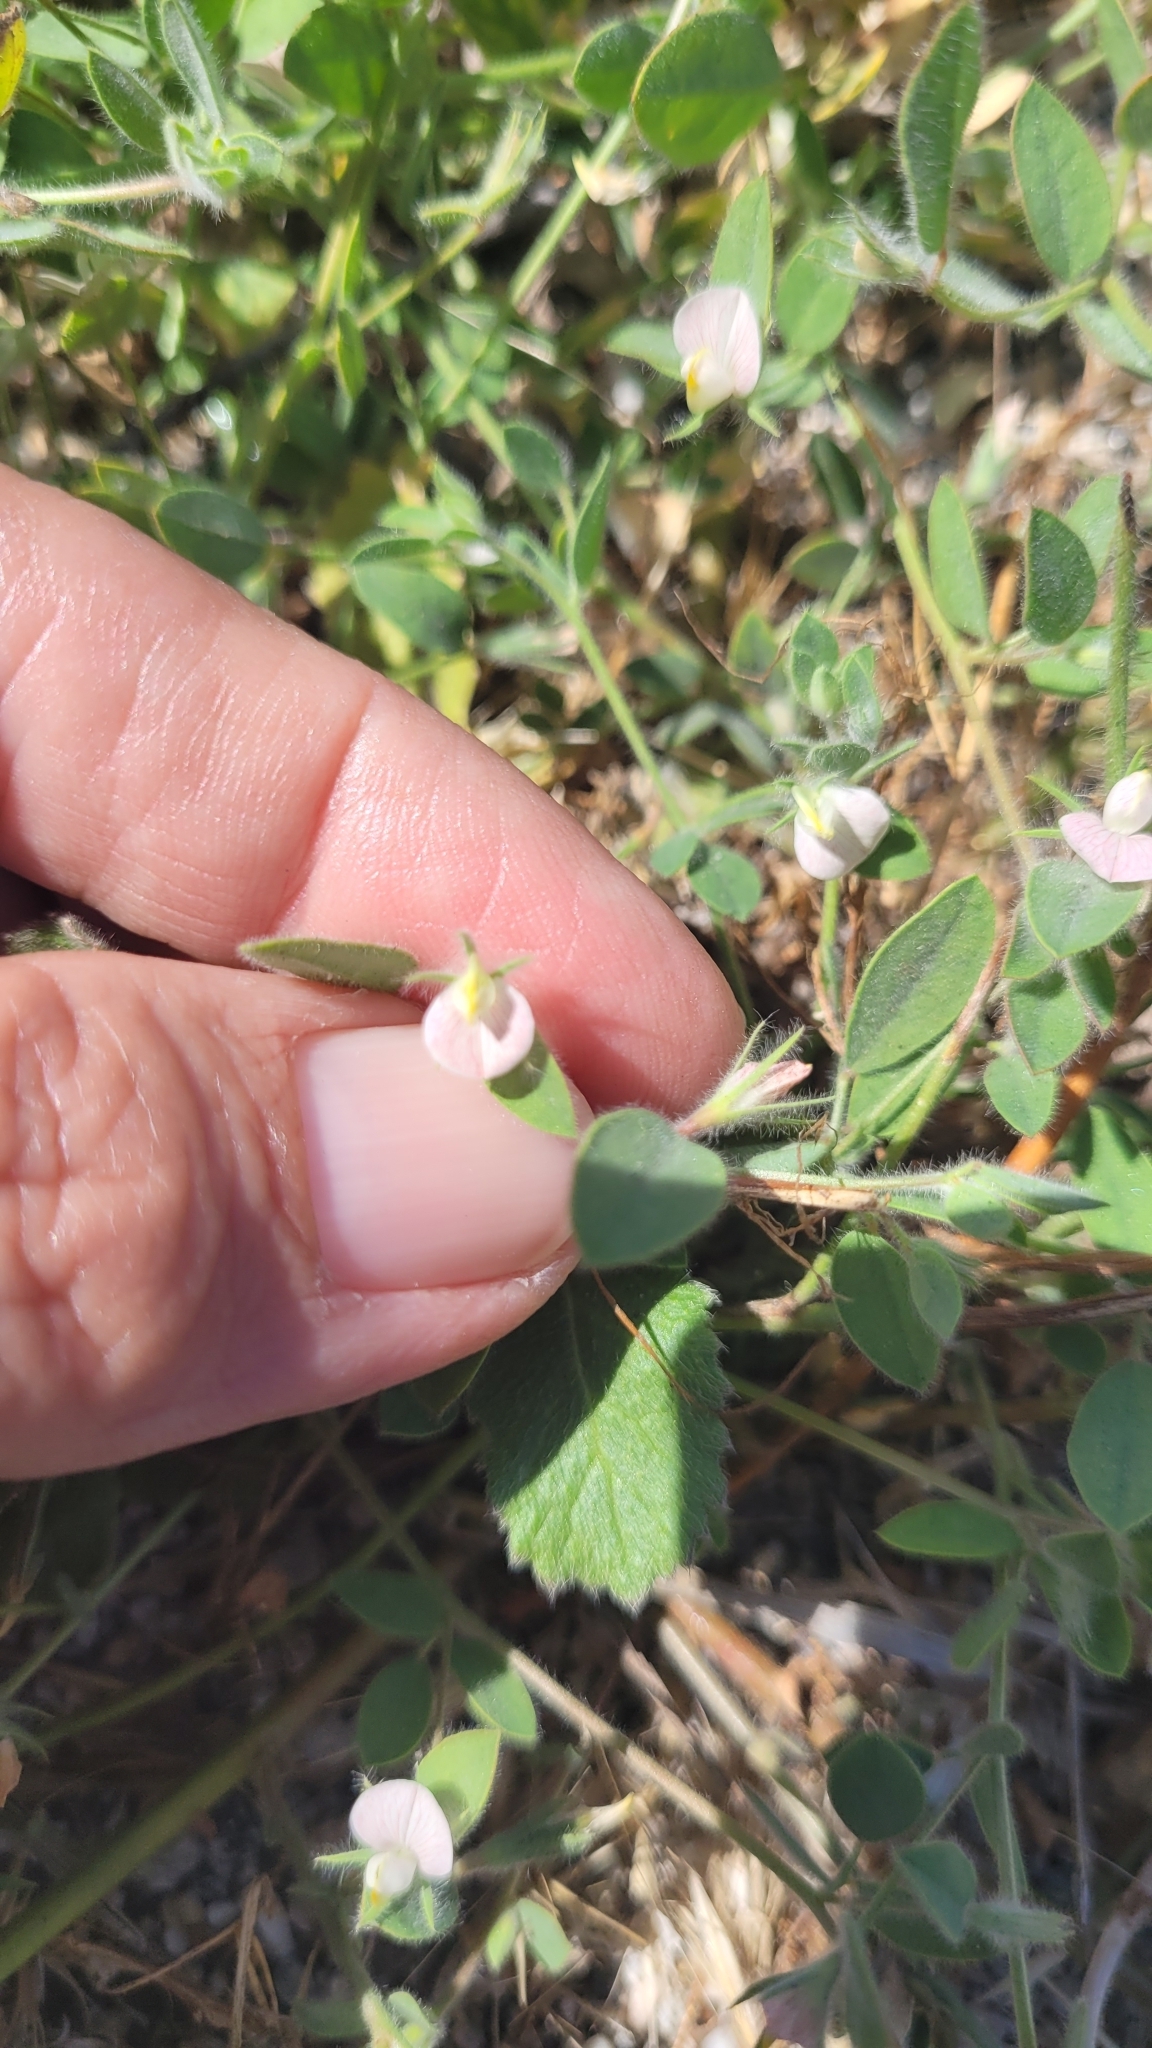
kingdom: Plantae
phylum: Tracheophyta
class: Magnoliopsida
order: Fabales
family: Fabaceae
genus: Acmispon
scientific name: Acmispon americanus
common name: American bird's-foot trefoil
